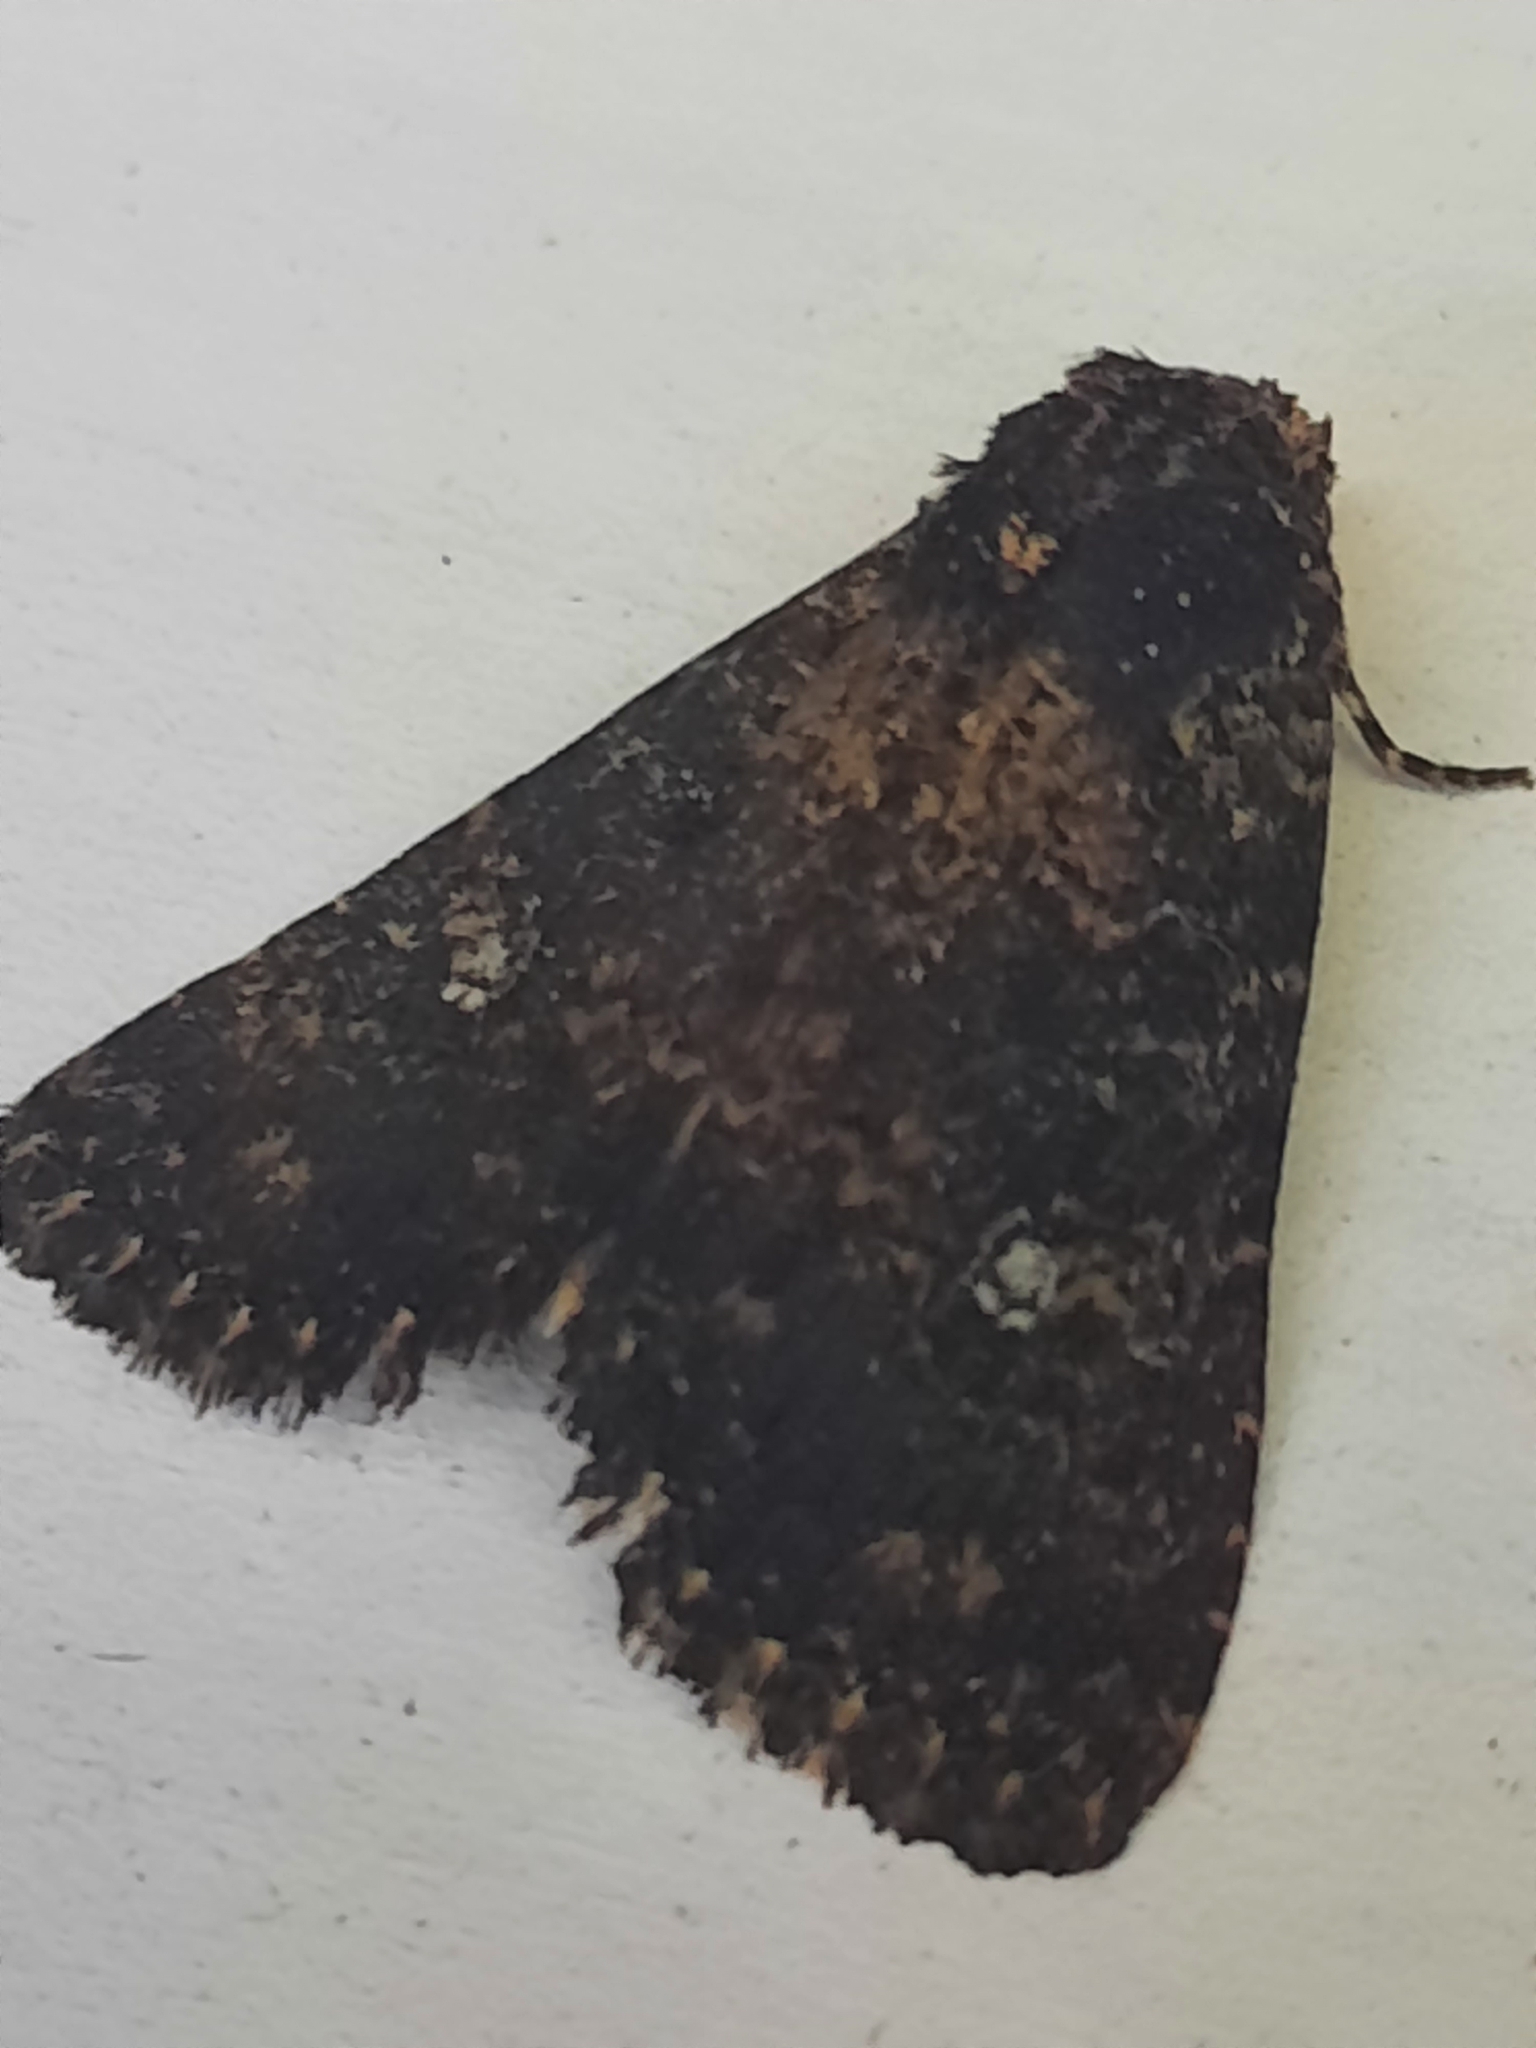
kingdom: Animalia
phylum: Arthropoda
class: Insecta
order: Lepidoptera
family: Noctuidae
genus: Condica
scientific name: Condica vecors
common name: Dusky groundling
